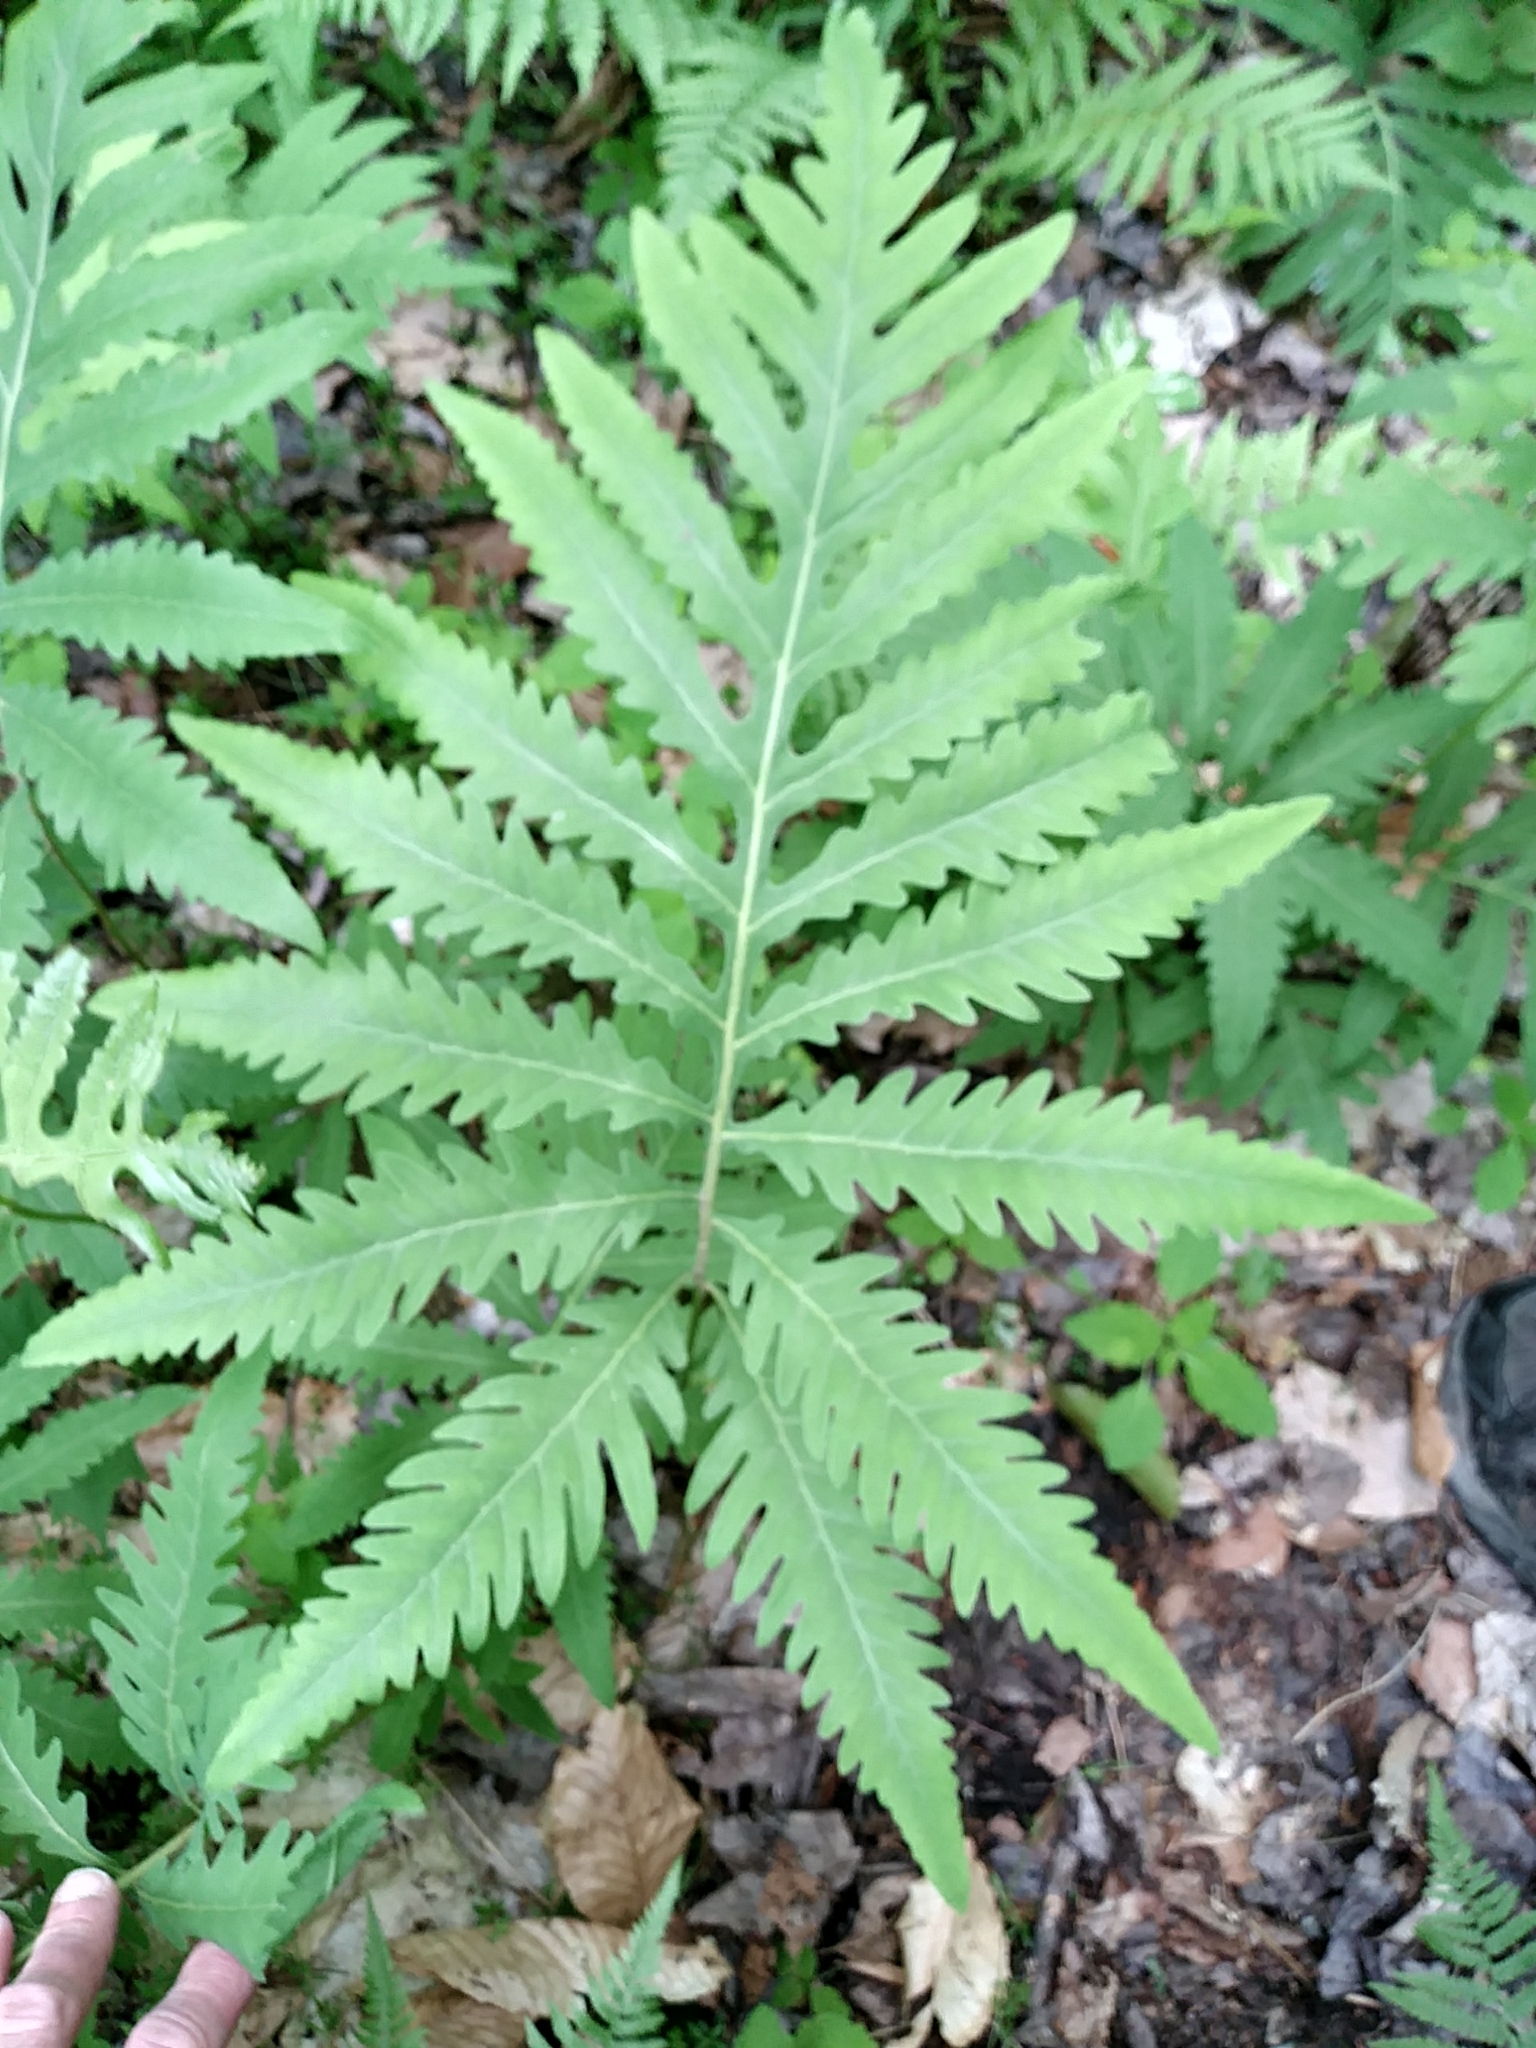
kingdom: Plantae
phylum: Tracheophyta
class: Polypodiopsida
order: Polypodiales
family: Onocleaceae
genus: Onoclea
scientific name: Onoclea sensibilis
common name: Sensitive fern
